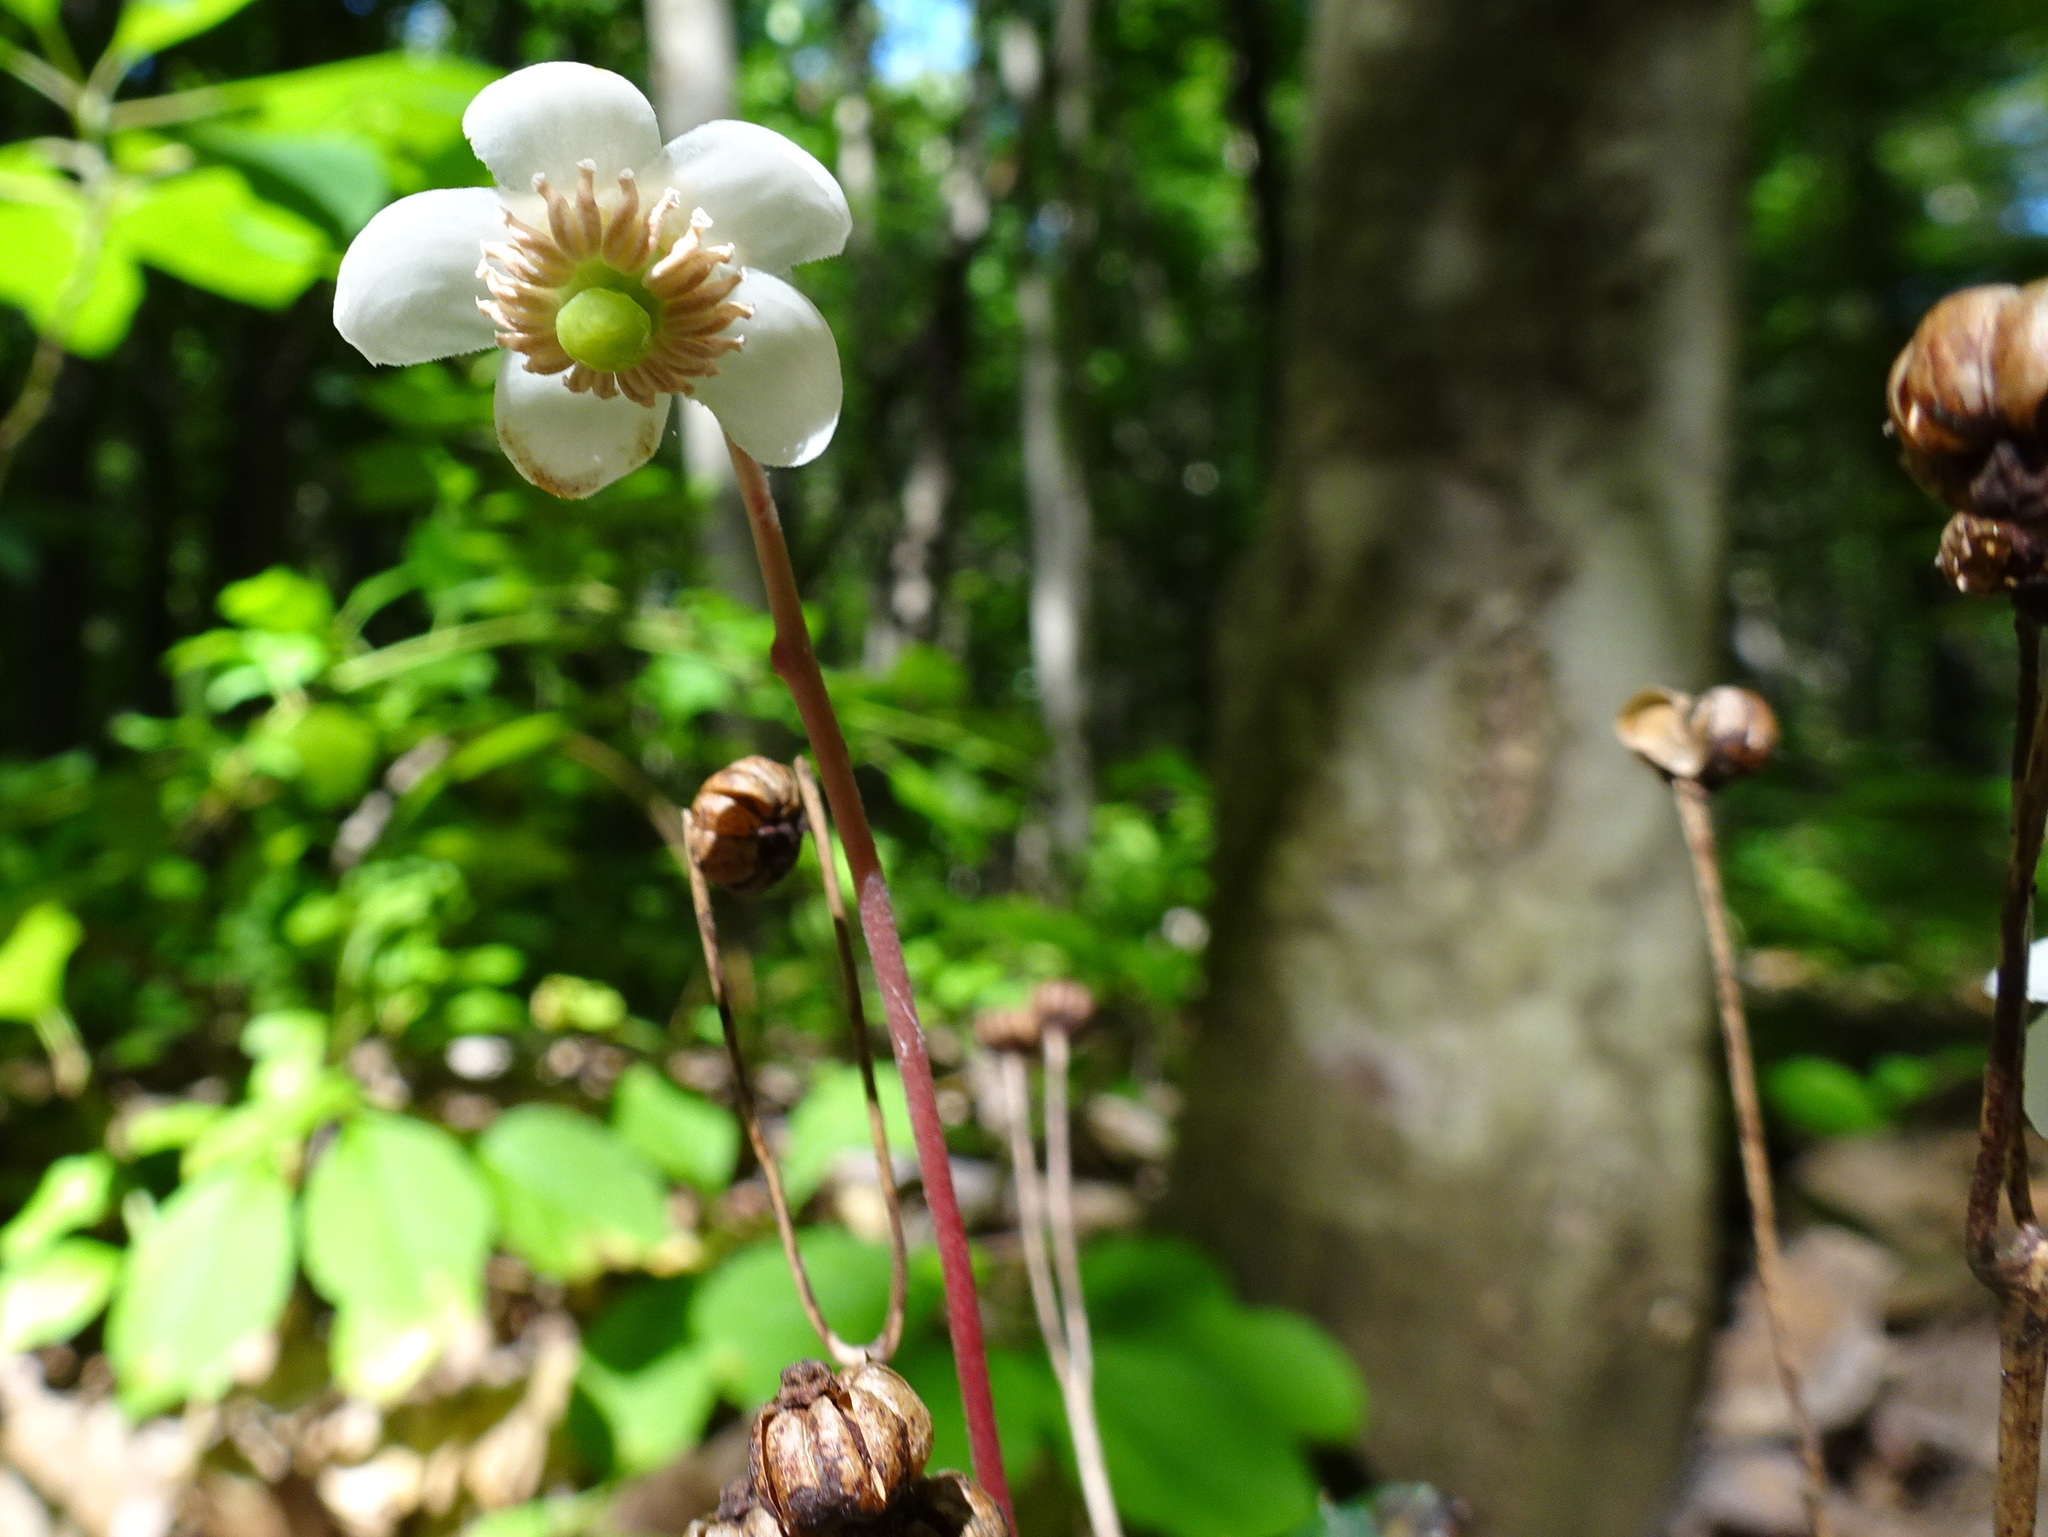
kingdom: Plantae
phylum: Tracheophyta
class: Magnoliopsida
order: Ericales
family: Ericaceae
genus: Chimaphila
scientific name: Chimaphila maculata
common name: Spotted pipsissewa
